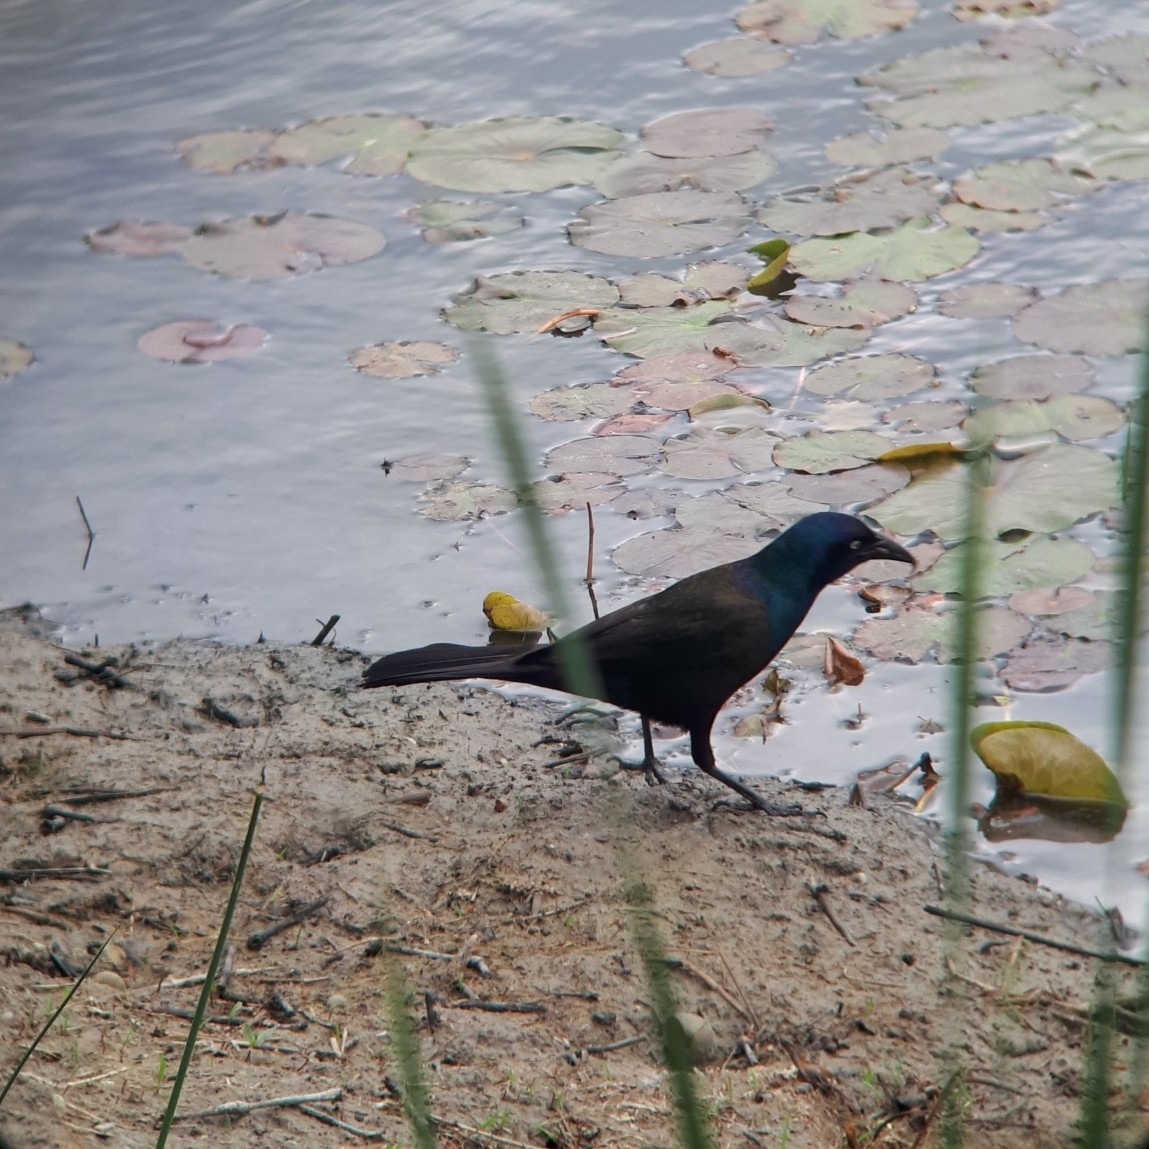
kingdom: Animalia
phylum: Chordata
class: Aves
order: Passeriformes
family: Icteridae
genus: Quiscalus
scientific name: Quiscalus quiscula
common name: Common grackle
